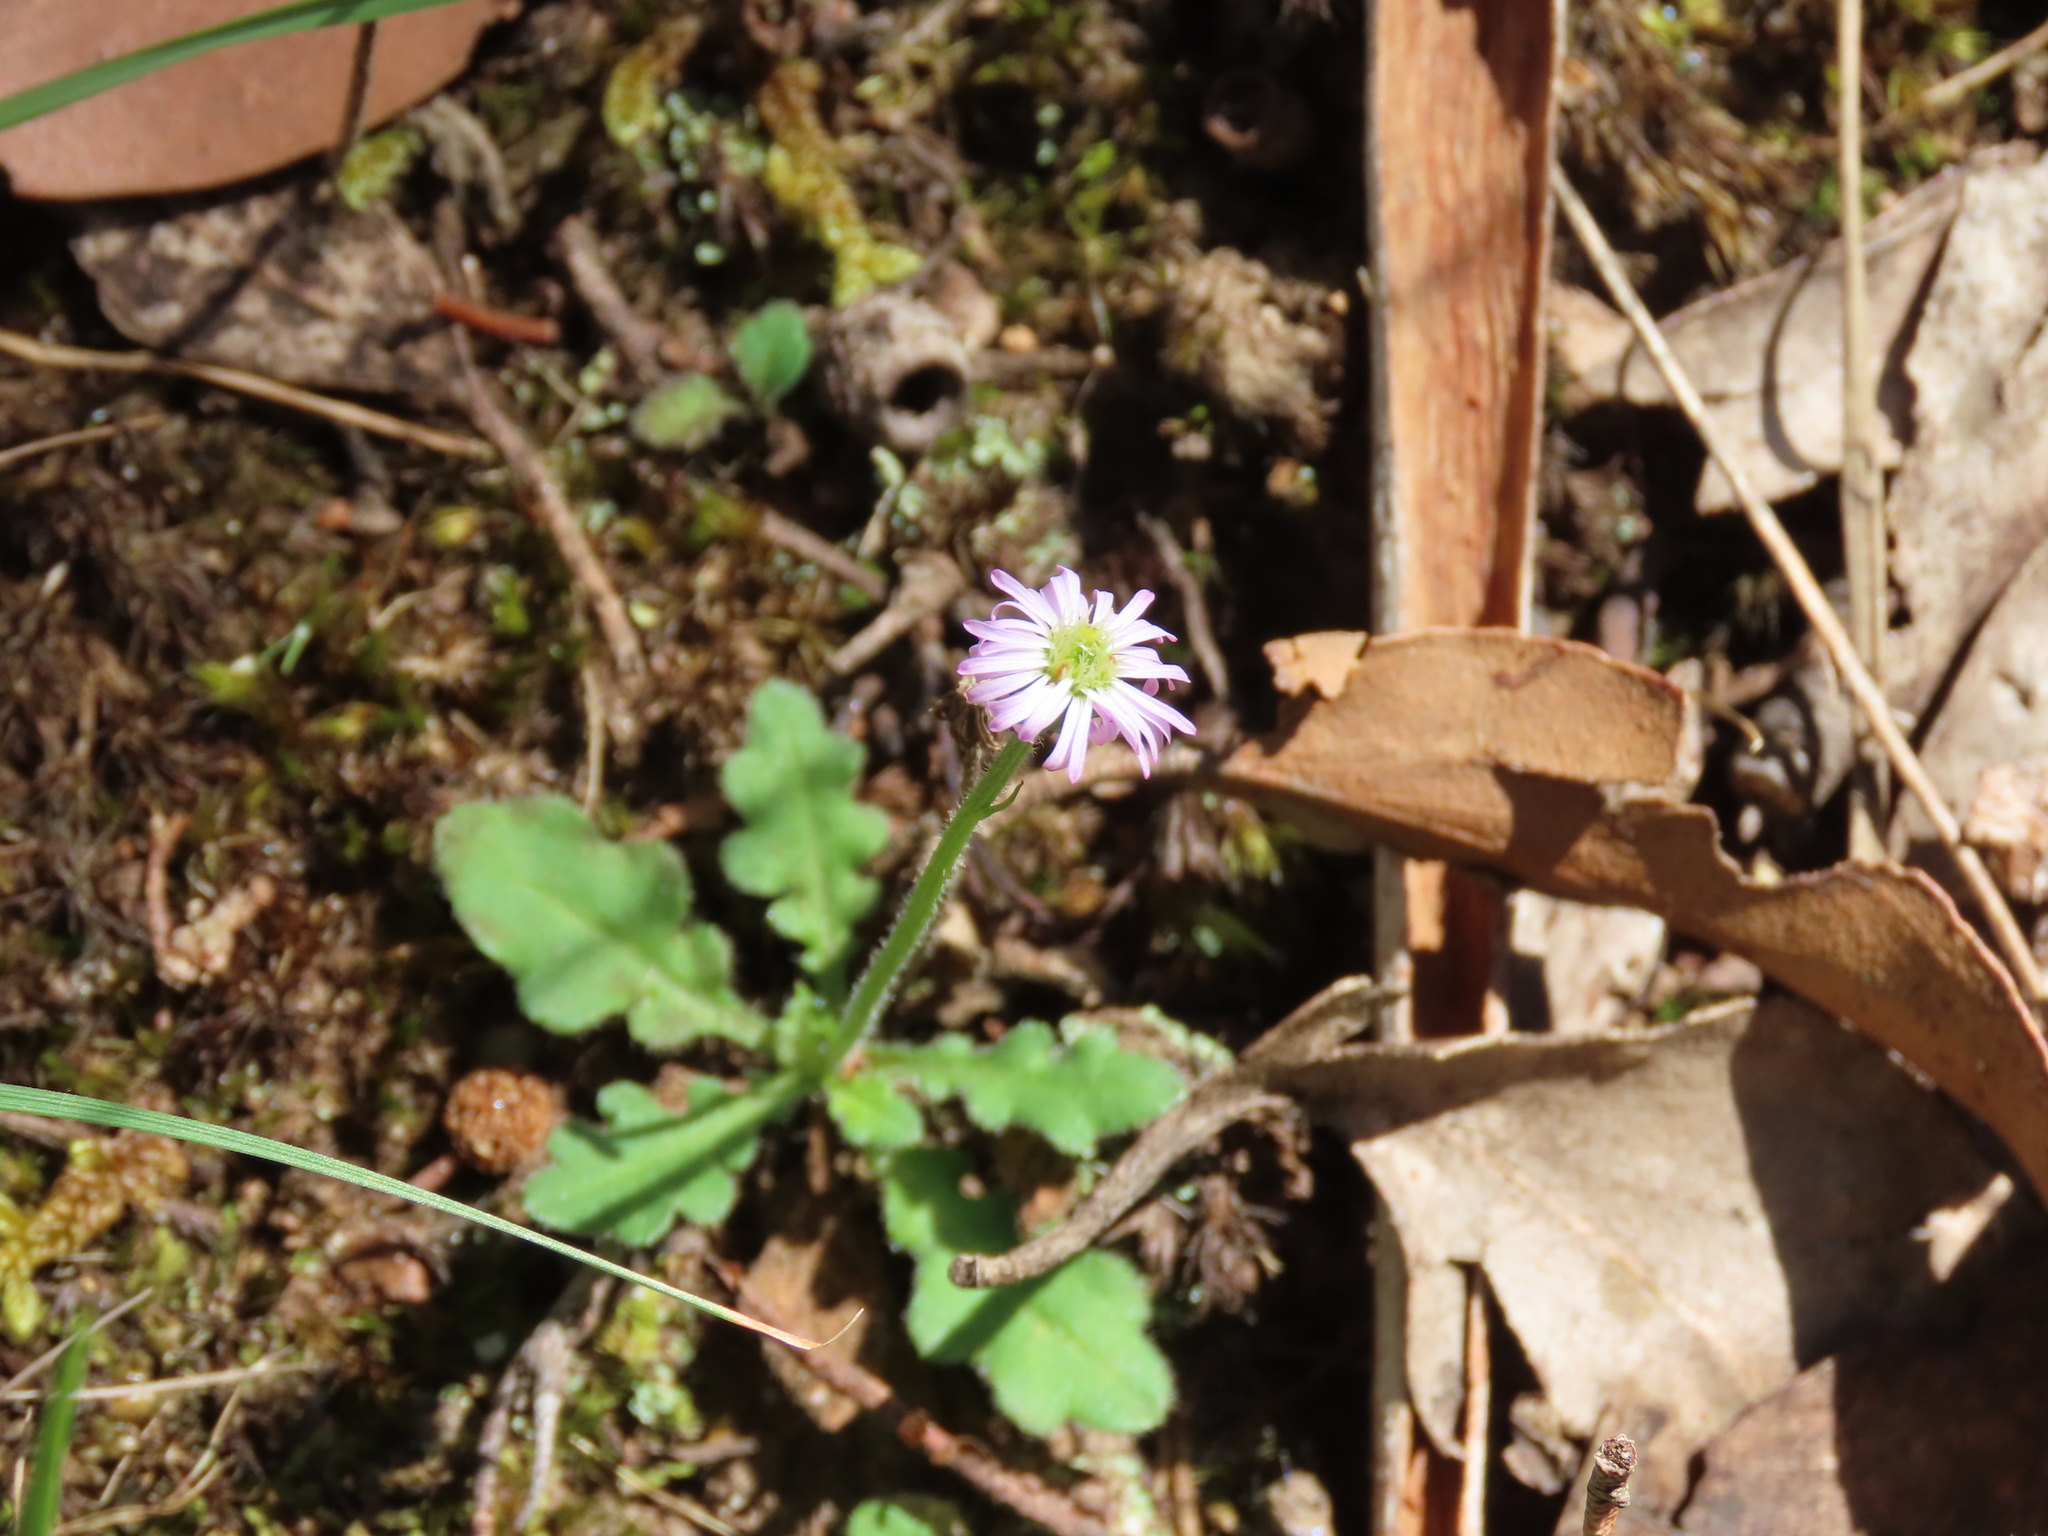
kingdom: Plantae
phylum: Tracheophyta
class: Magnoliopsida
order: Asterales
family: Asteraceae
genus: Lagenophora
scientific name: Lagenophora stipitata
